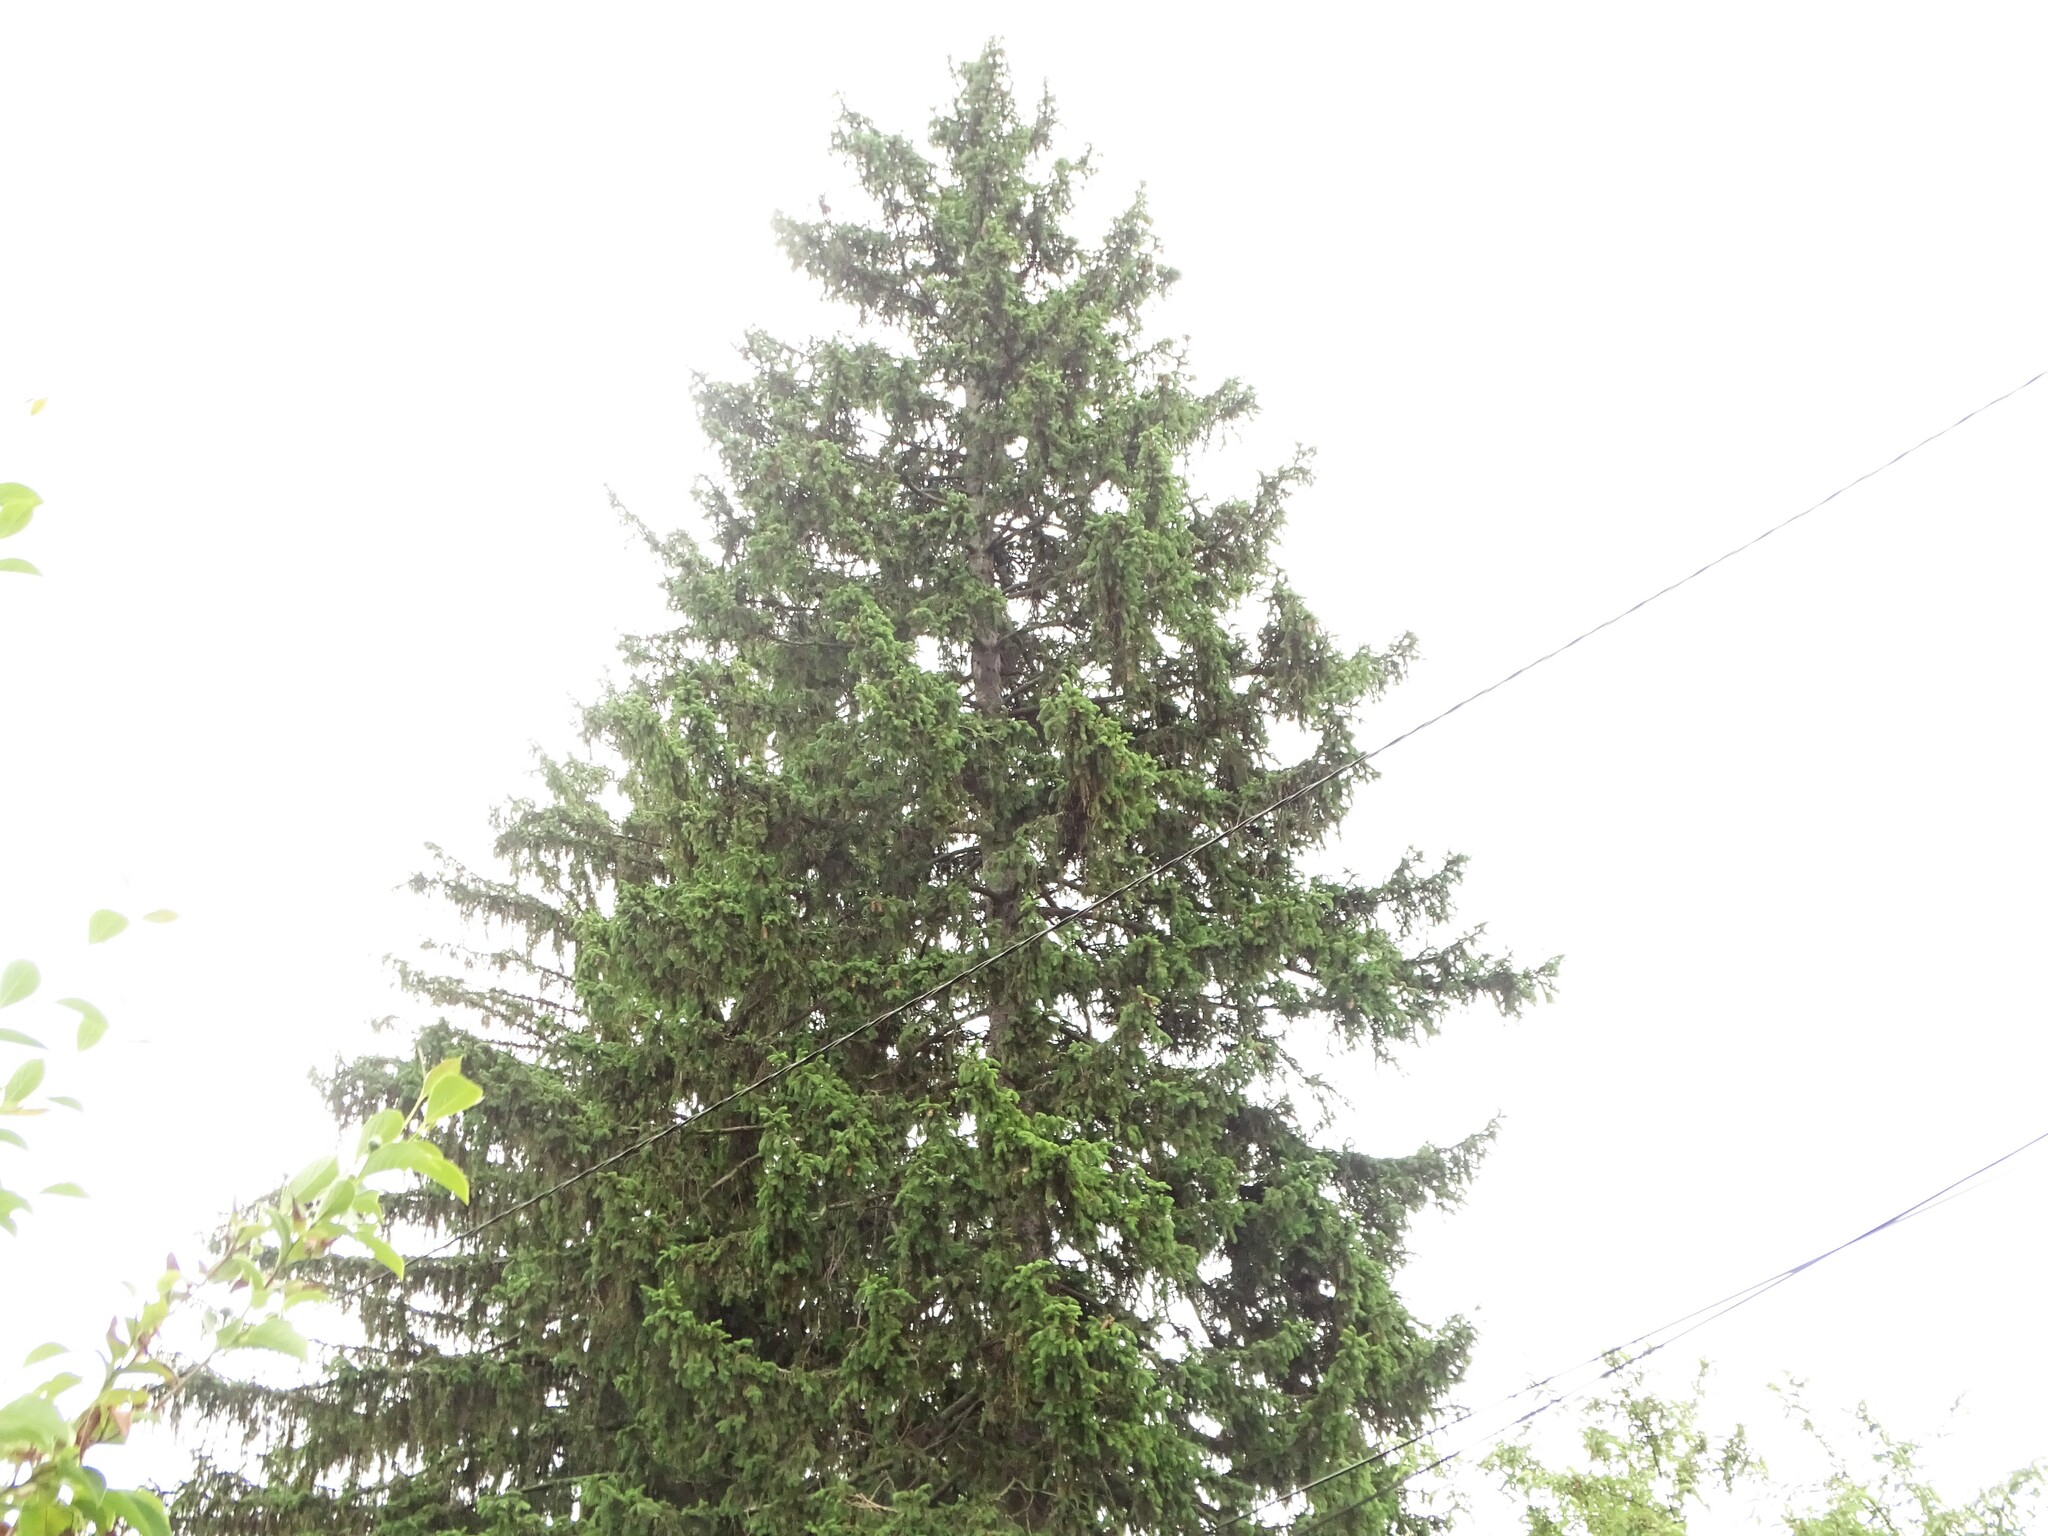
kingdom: Plantae
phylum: Tracheophyta
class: Pinopsida
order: Pinales
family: Pinaceae
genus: Picea
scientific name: Picea abies
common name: Norway spruce
